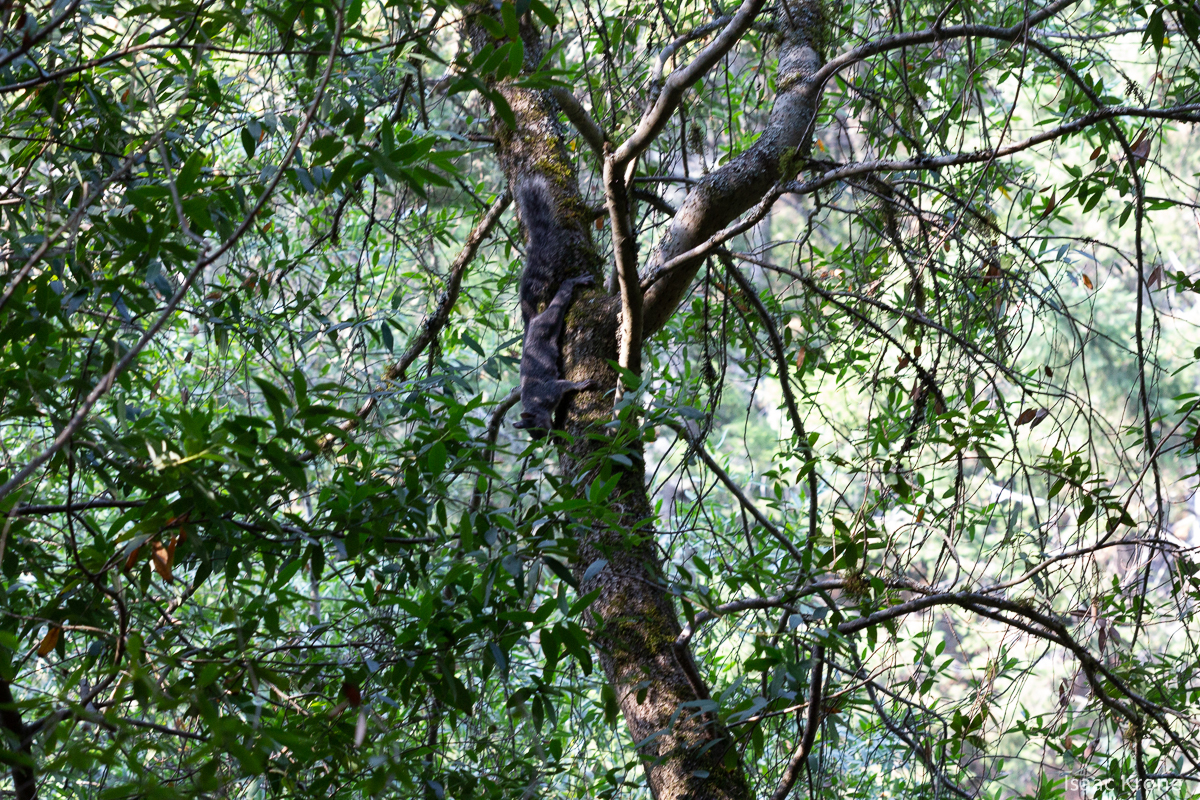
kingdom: Animalia
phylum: Chordata
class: Mammalia
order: Rodentia
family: Sciuridae
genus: Sciurus
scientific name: Sciurus griseus
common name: Western gray squirrel
